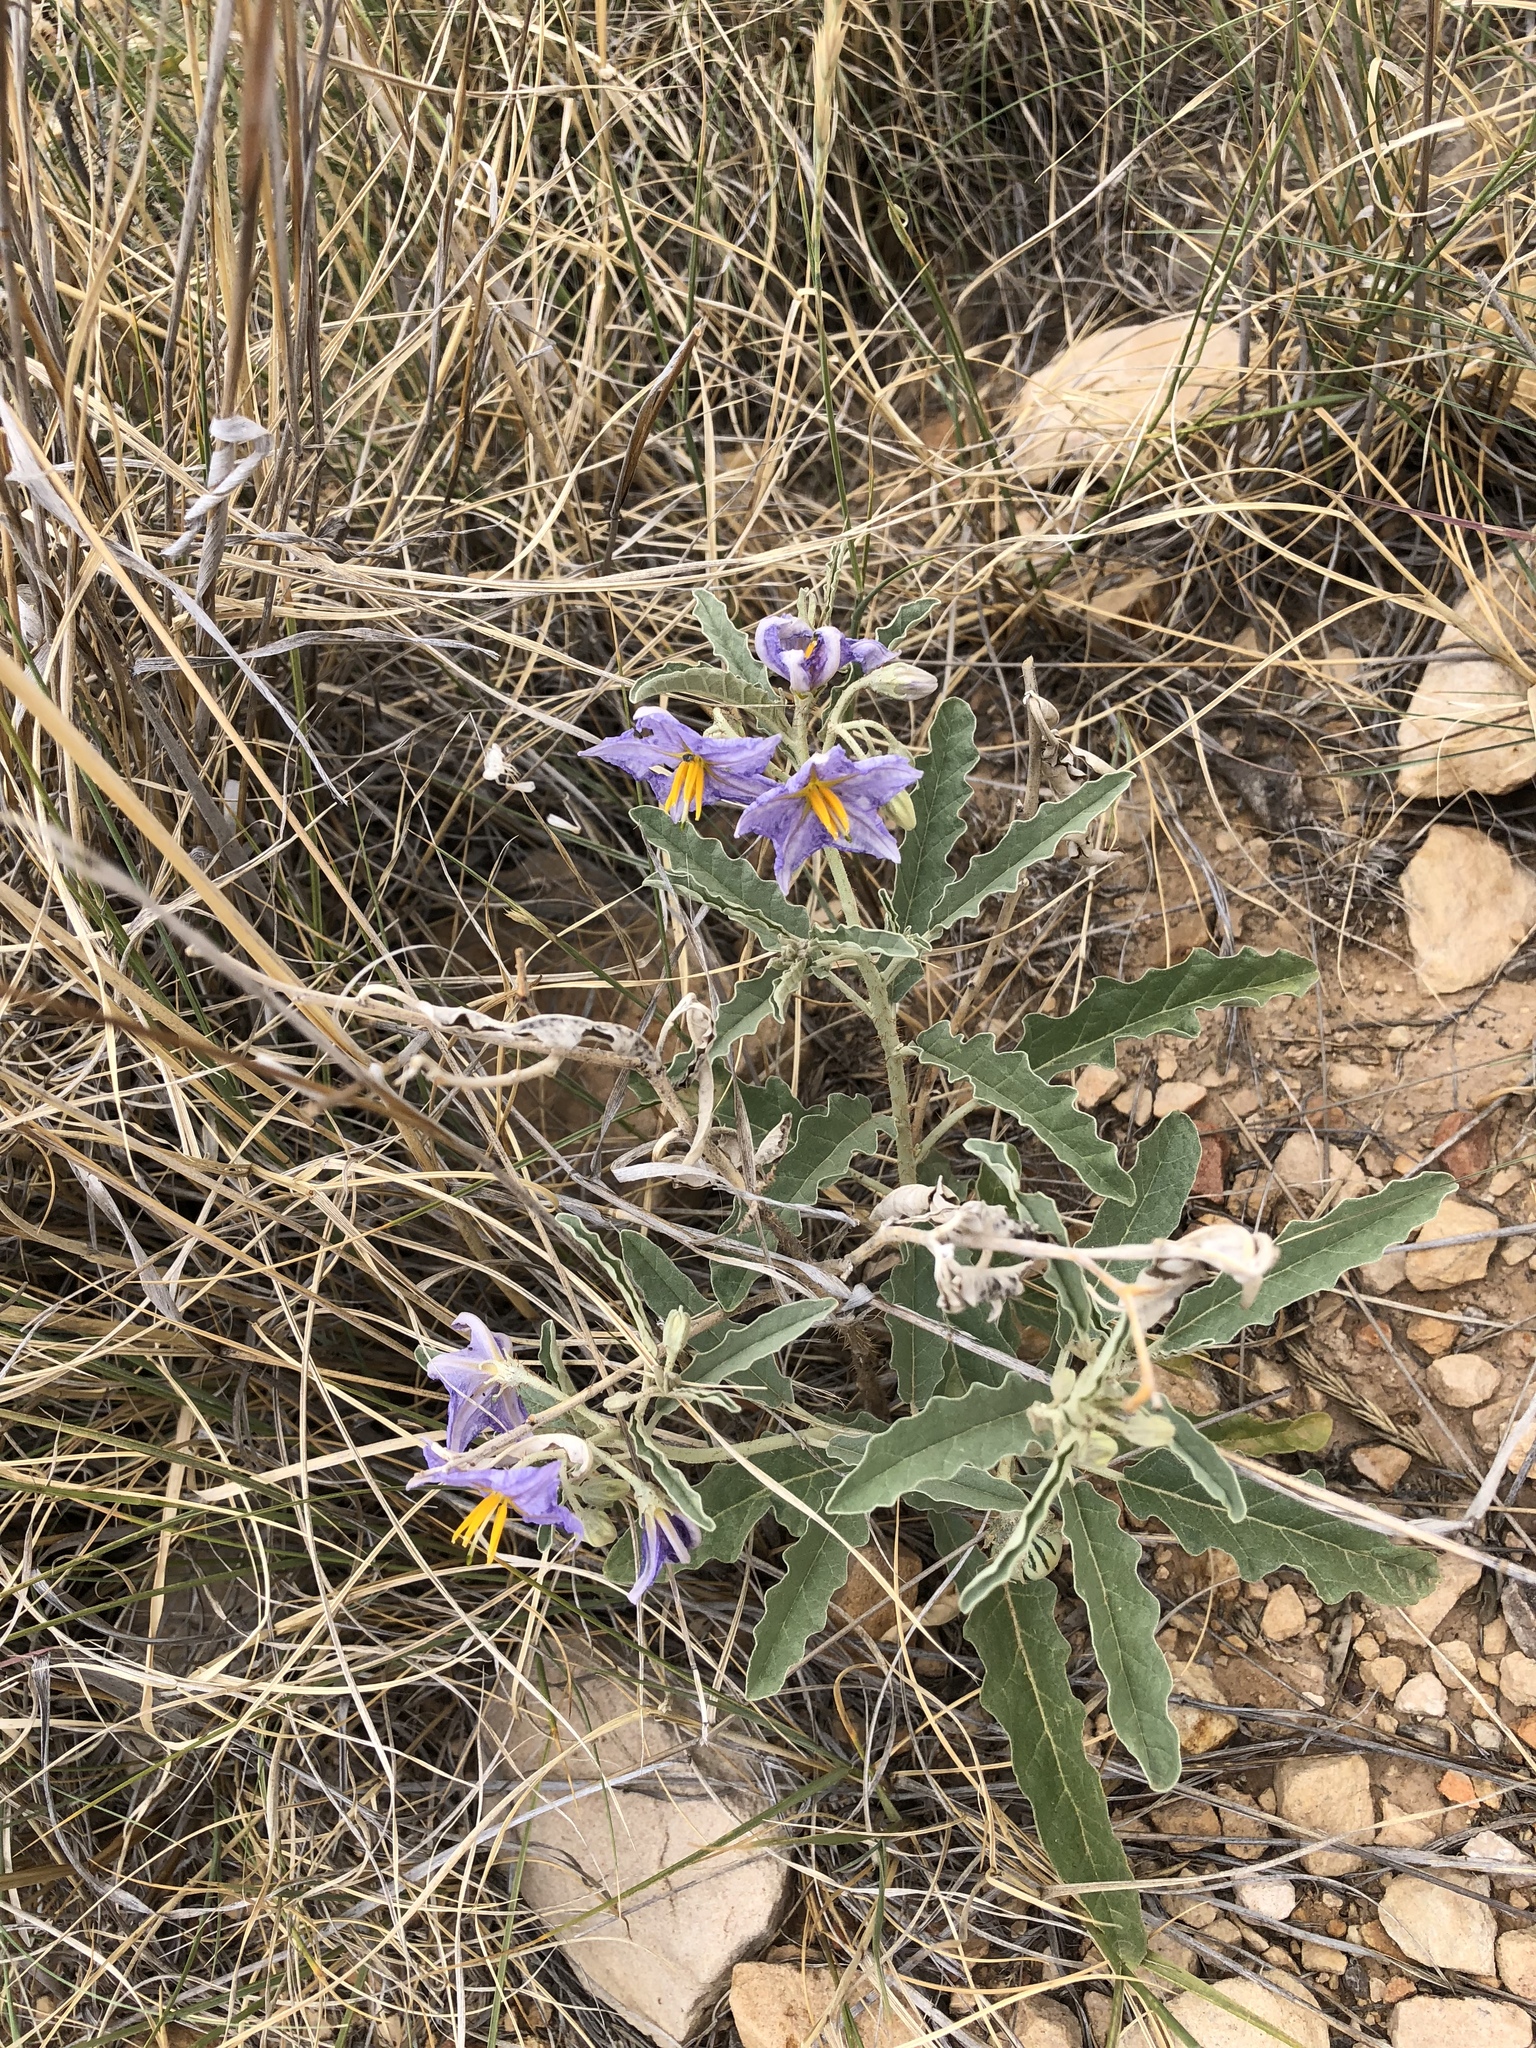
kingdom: Plantae
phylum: Tracheophyta
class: Magnoliopsida
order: Solanales
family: Solanaceae
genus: Solanum
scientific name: Solanum elaeagnifolium
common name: Silverleaf nightshade
